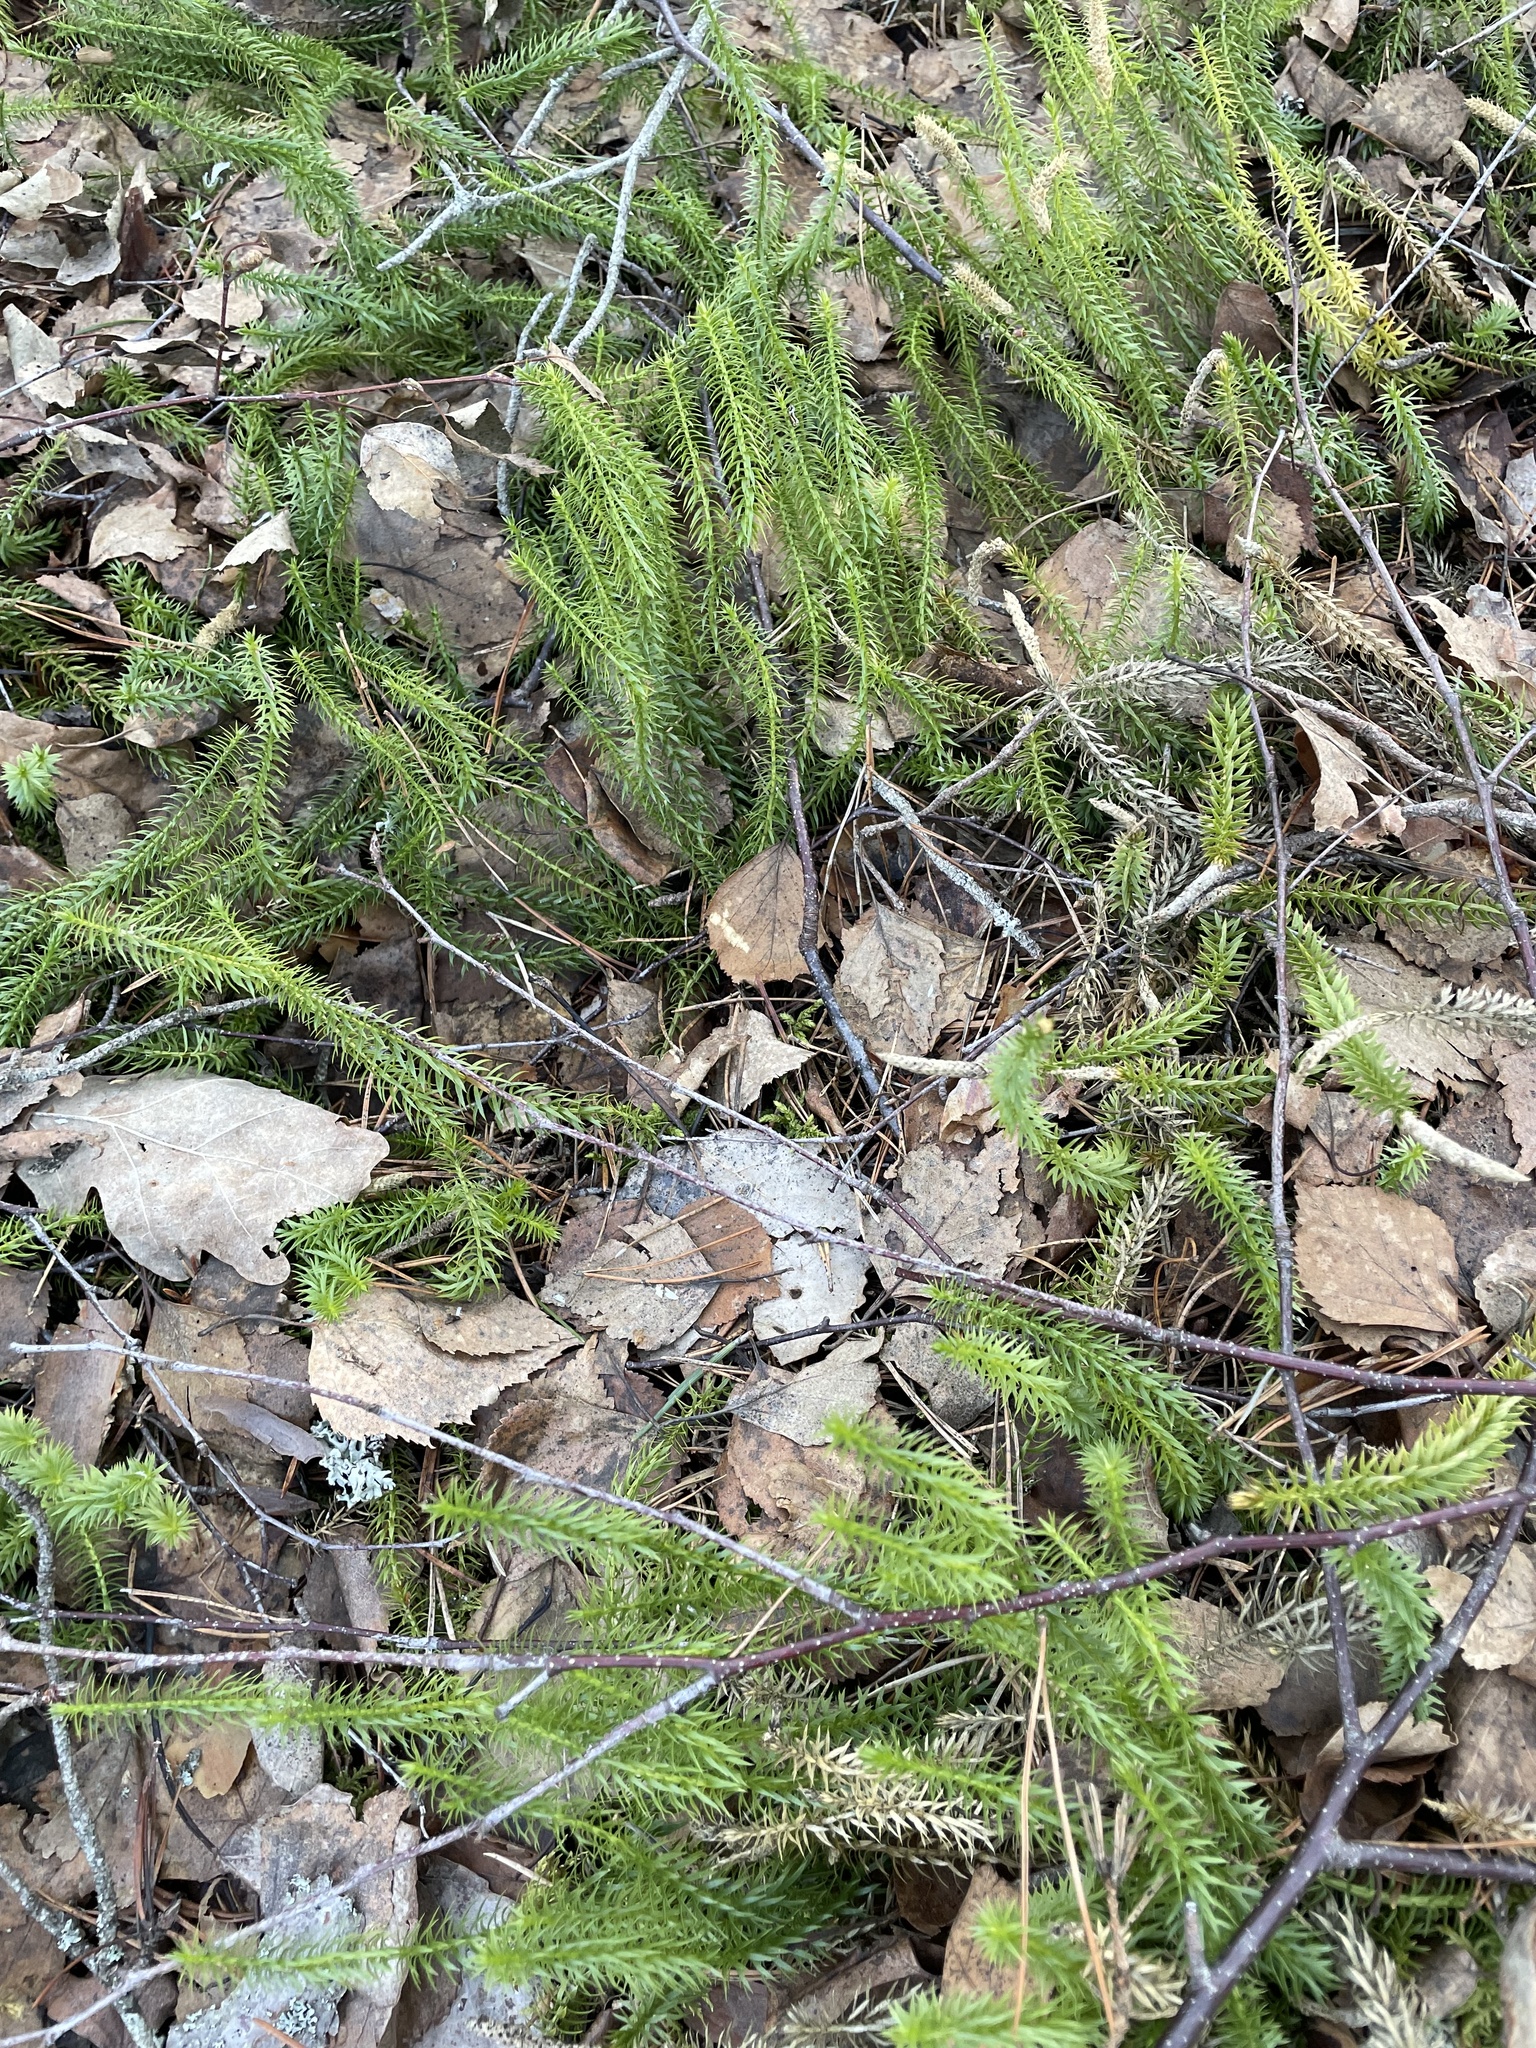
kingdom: Plantae
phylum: Tracheophyta
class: Lycopodiopsida
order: Lycopodiales
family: Lycopodiaceae
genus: Spinulum
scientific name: Spinulum annotinum
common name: Interrupted club-moss
